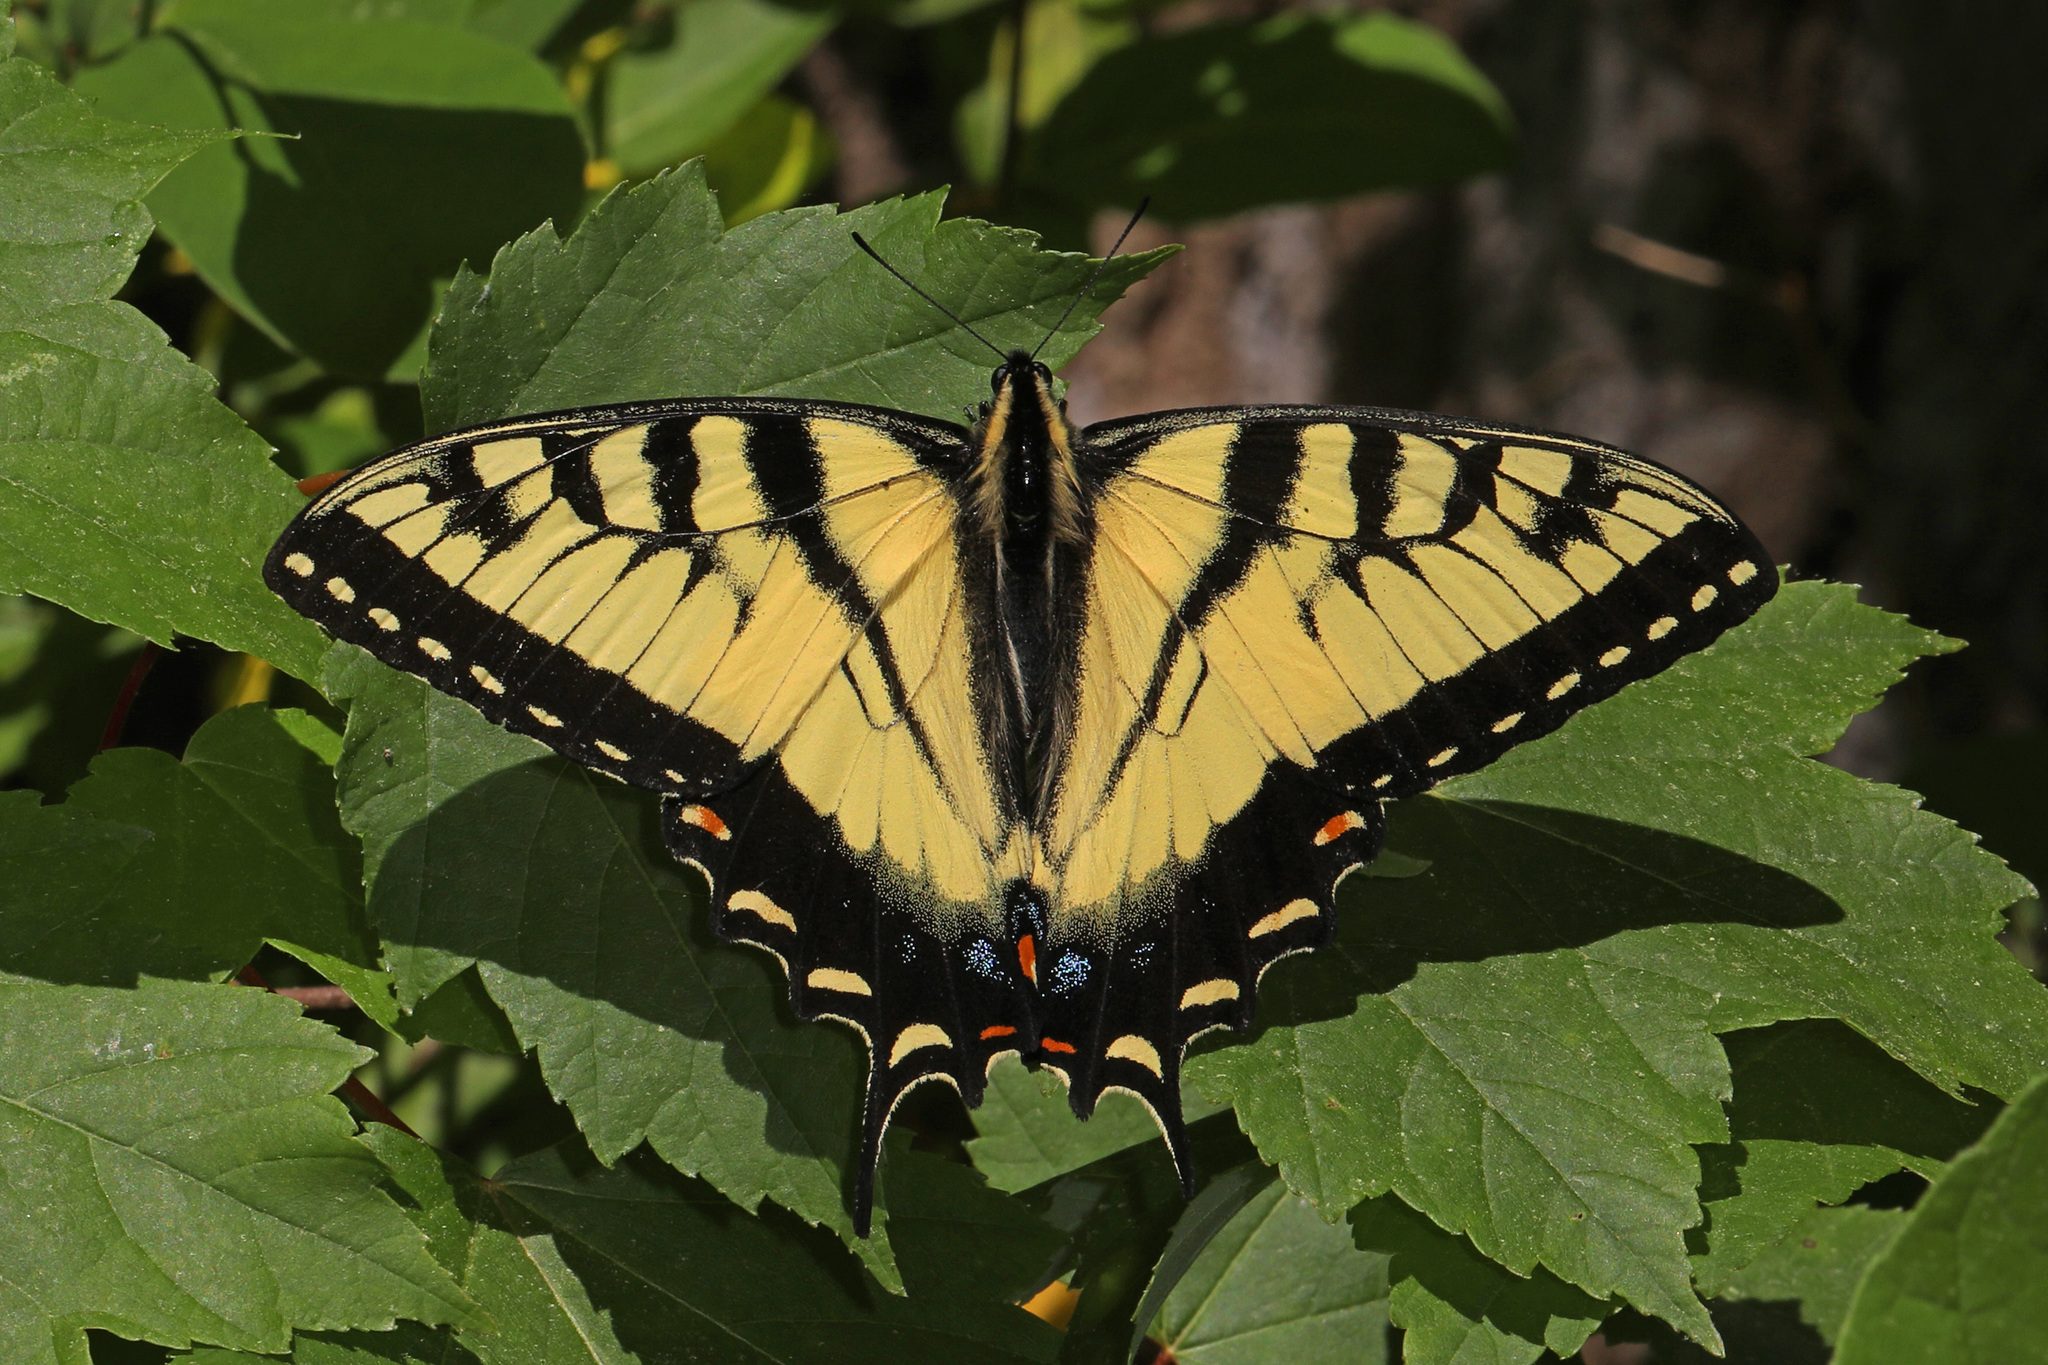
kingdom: Animalia
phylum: Arthropoda
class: Insecta
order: Lepidoptera
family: Papilionidae
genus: Papilio
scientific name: Papilio glaucus
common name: Tiger swallowtail
